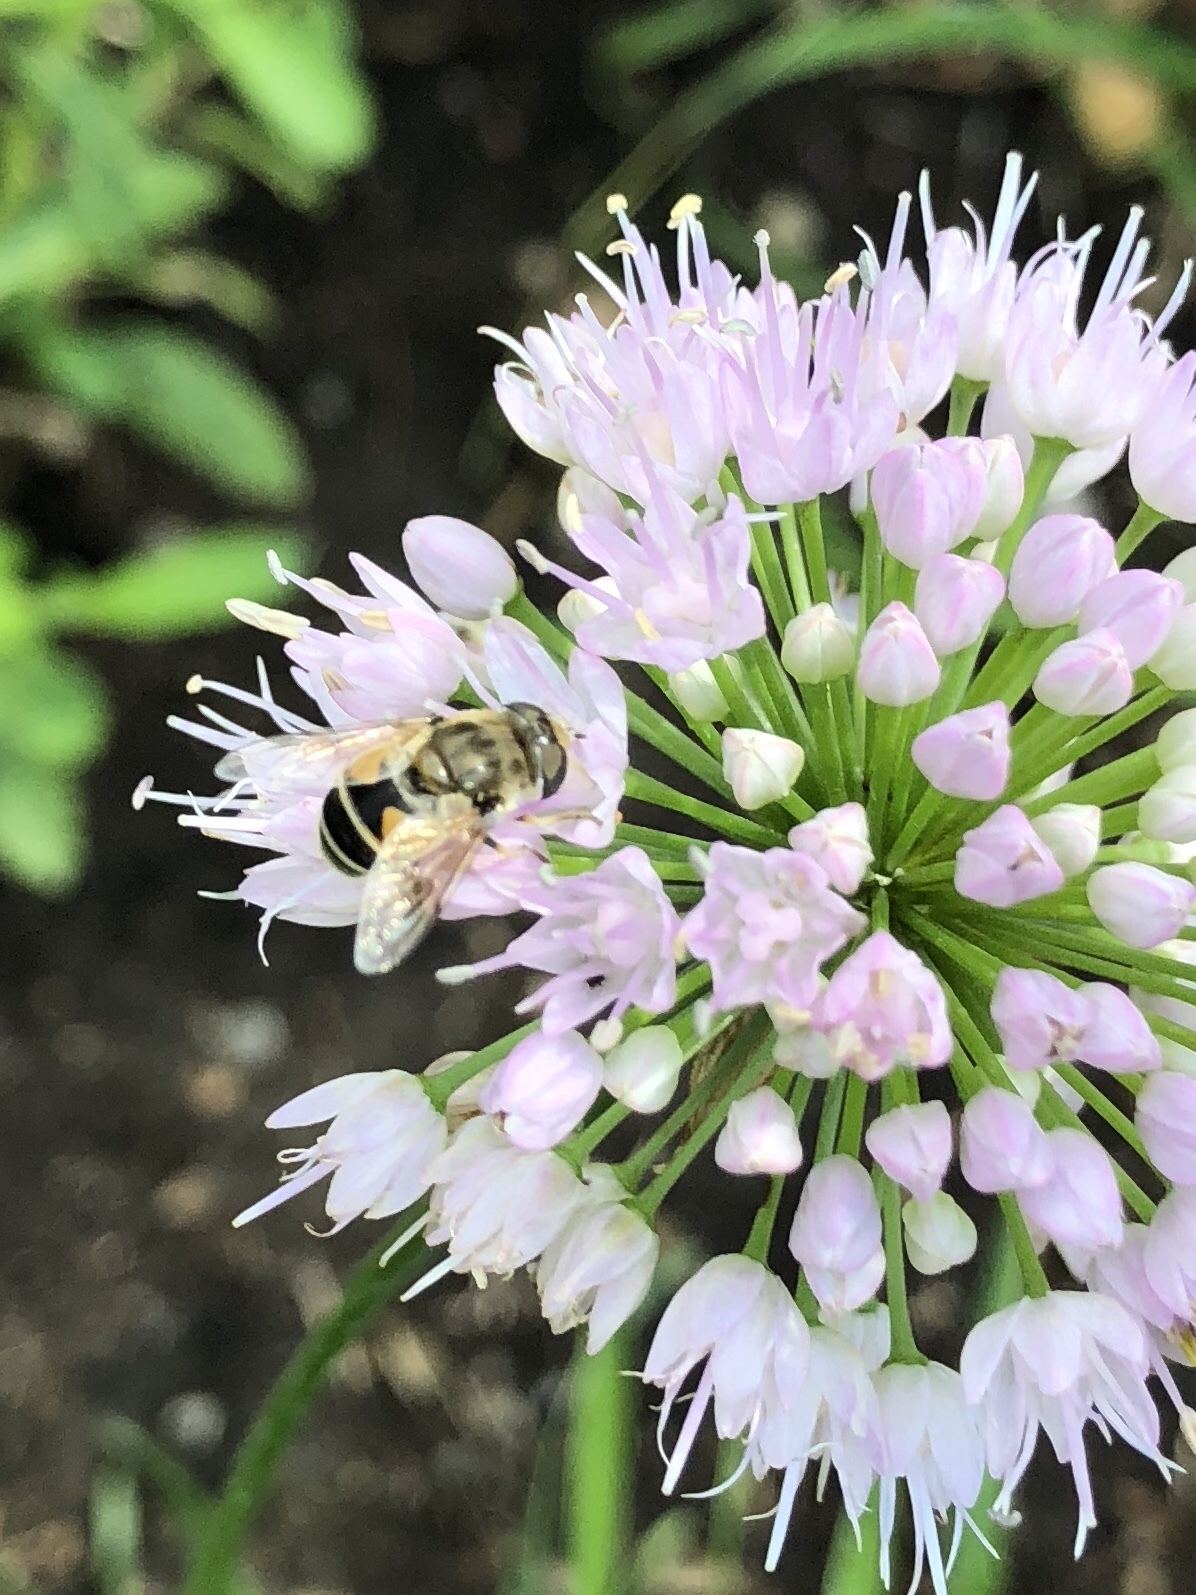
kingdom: Animalia
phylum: Arthropoda
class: Insecta
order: Diptera
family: Syrphidae
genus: Eristalis
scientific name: Eristalis arbustorum
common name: Hover fly
